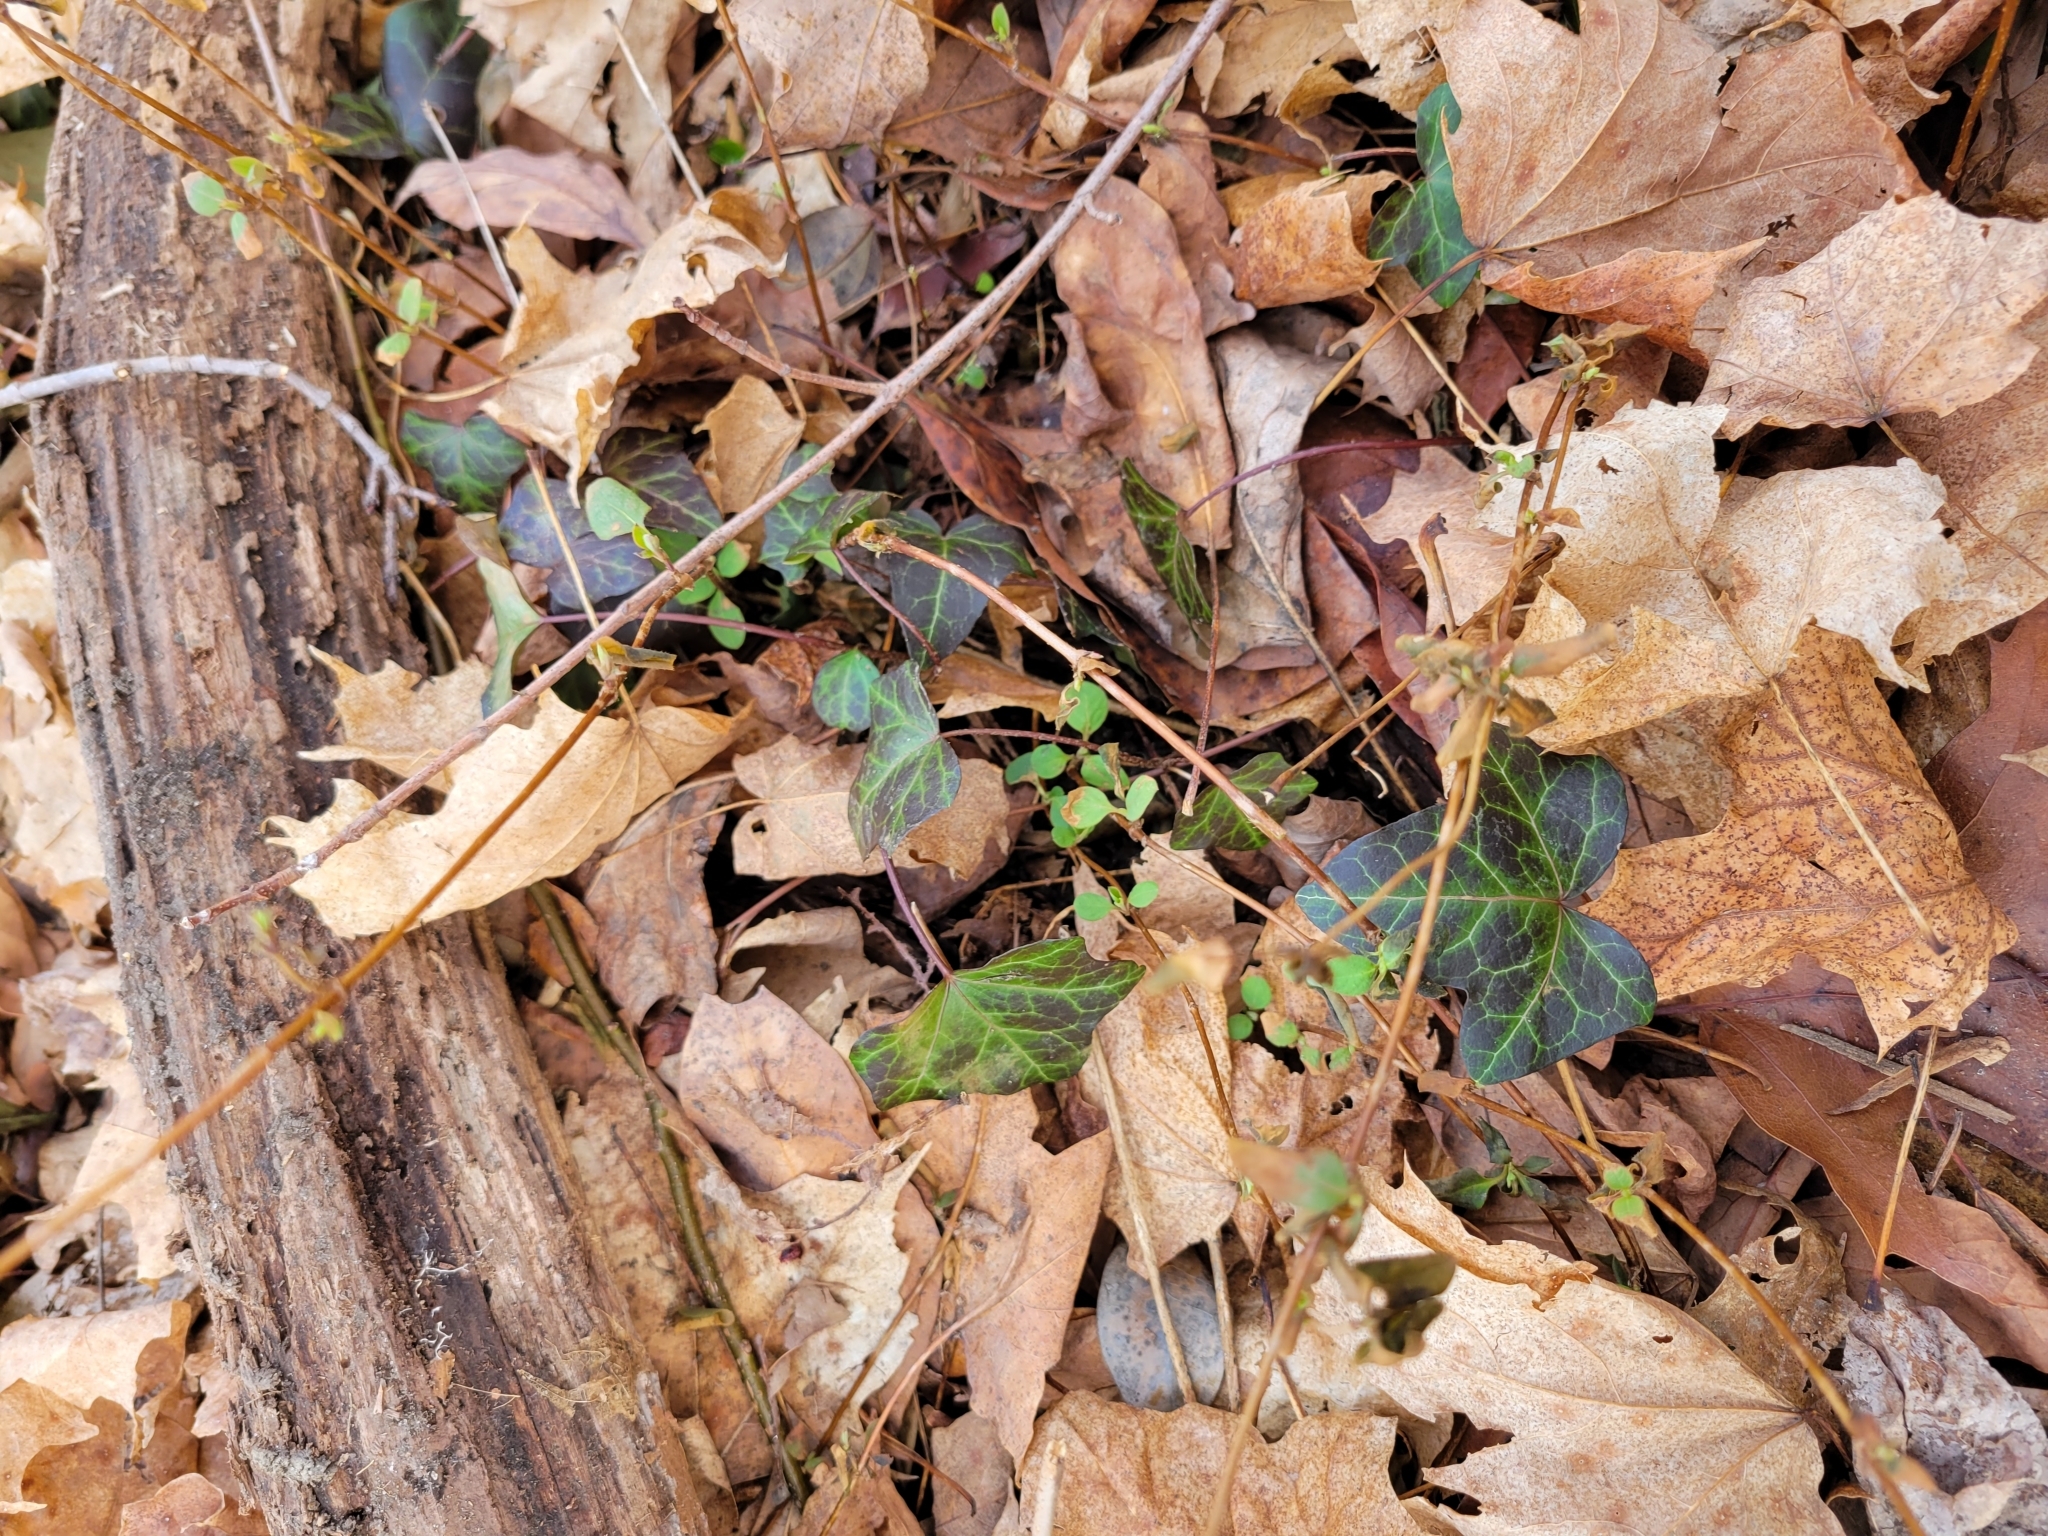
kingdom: Plantae
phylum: Tracheophyta
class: Magnoliopsida
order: Apiales
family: Araliaceae
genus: Hedera
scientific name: Hedera helix
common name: Ivy
